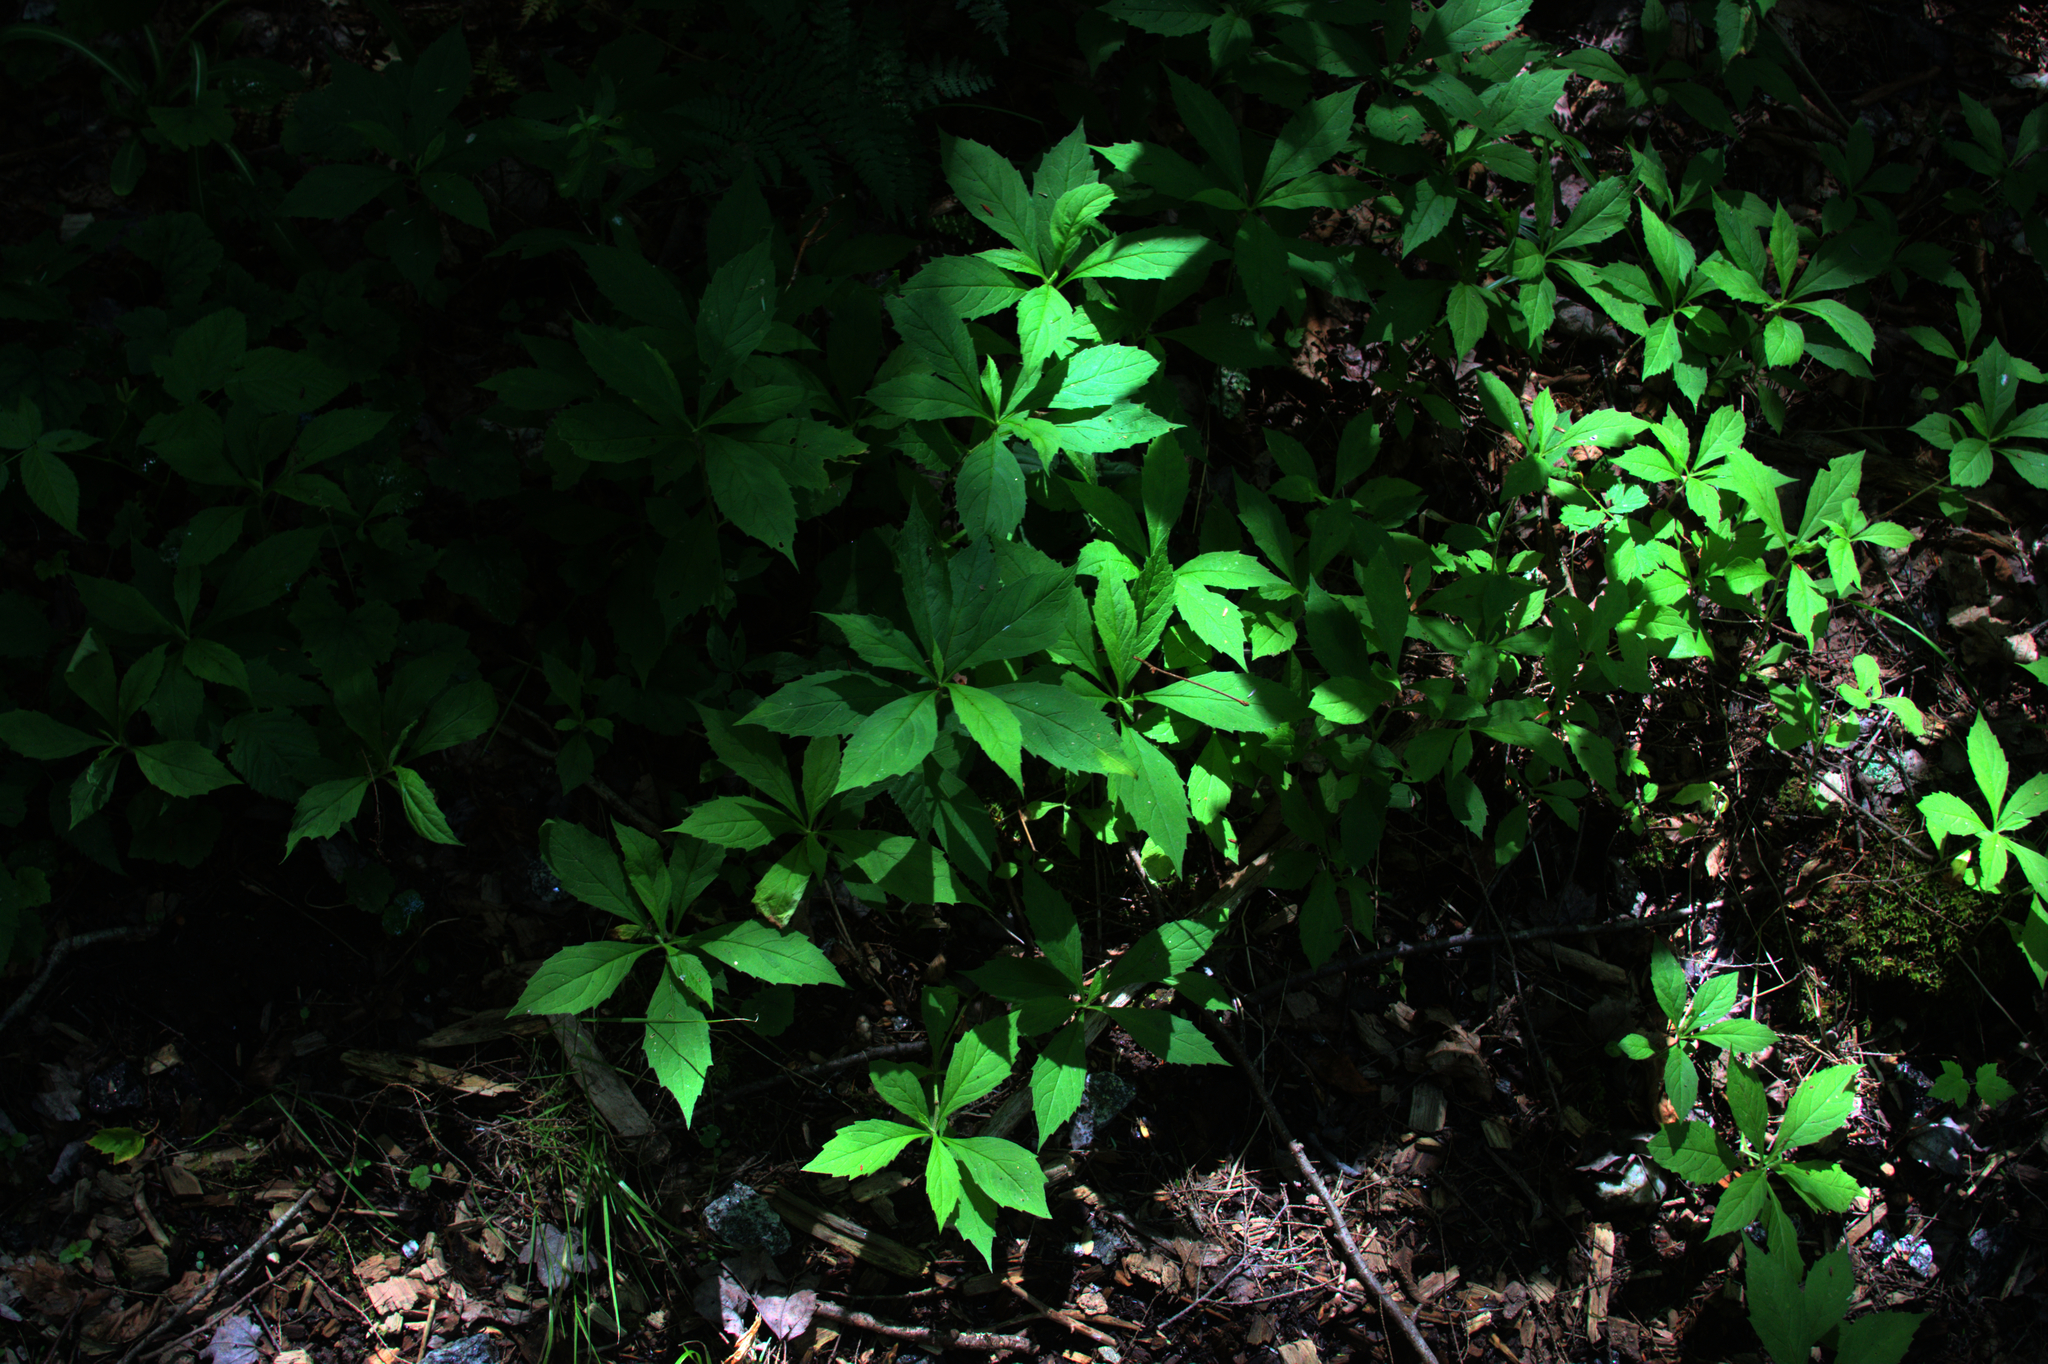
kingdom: Plantae
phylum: Tracheophyta
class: Magnoliopsida
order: Asterales
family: Asteraceae
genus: Oclemena
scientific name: Oclemena acuminata
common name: Mountain aster
